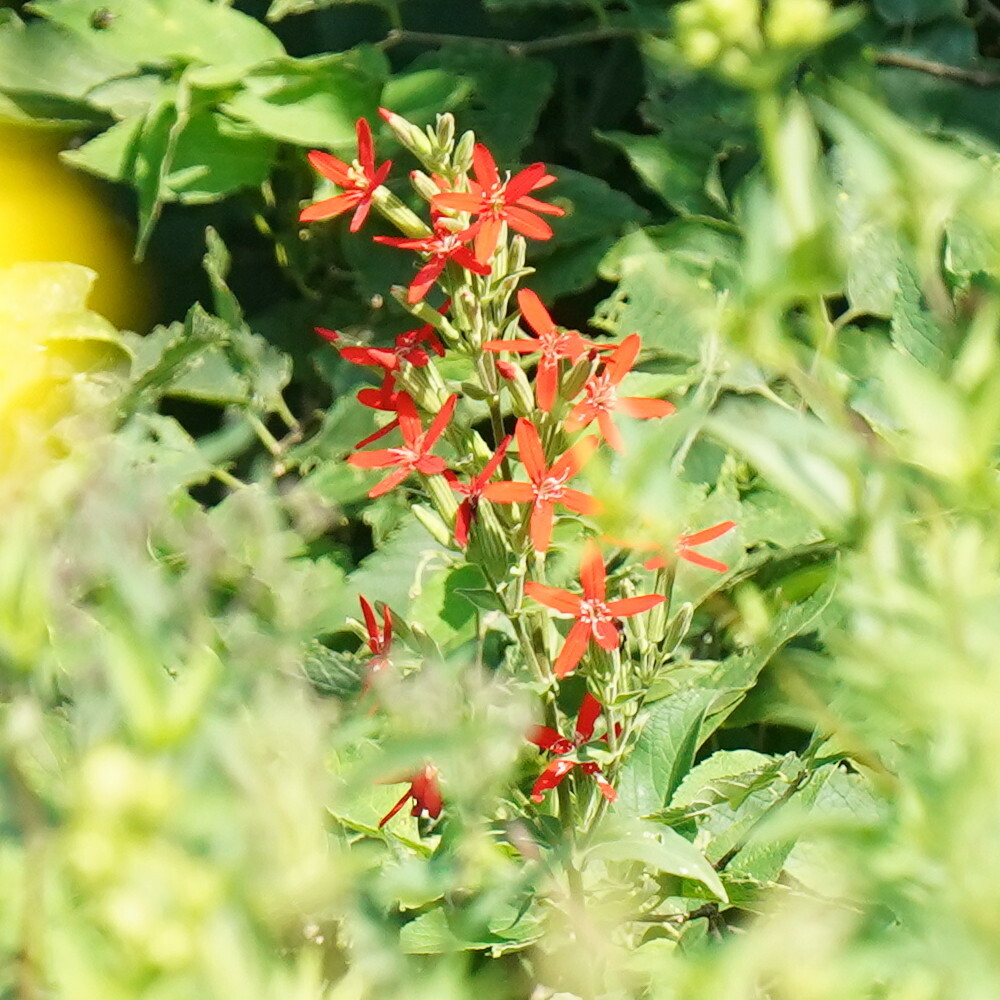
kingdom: Plantae
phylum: Tracheophyta
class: Magnoliopsida
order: Caryophyllales
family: Caryophyllaceae
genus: Silene
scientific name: Silene regia
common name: Royal catchfly
